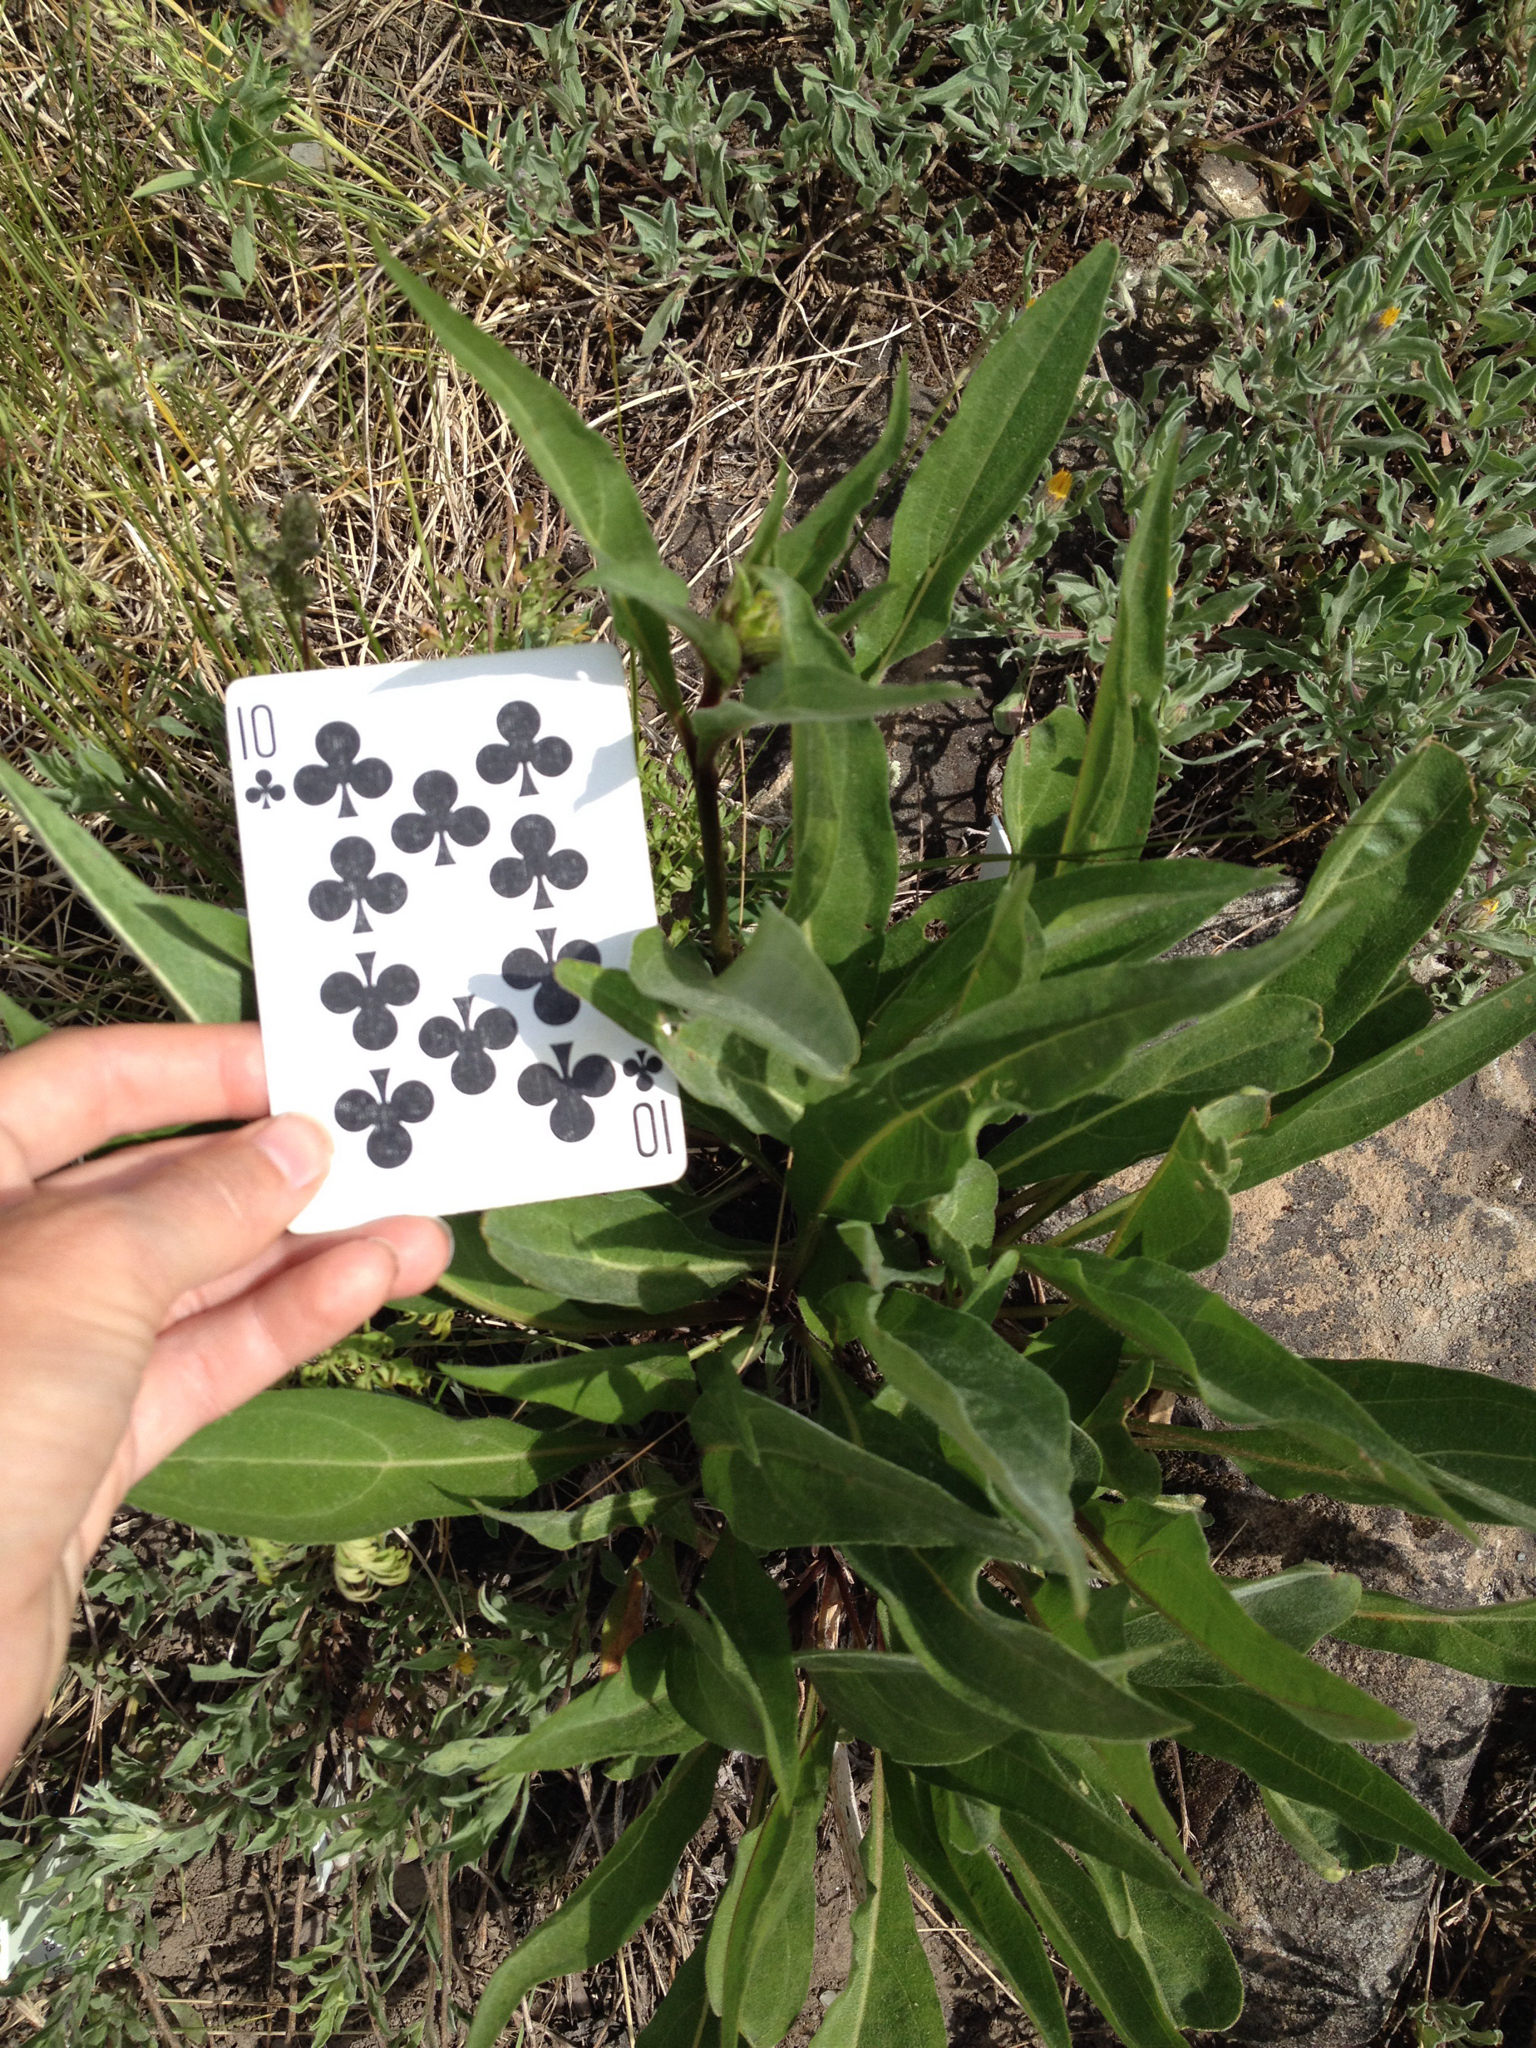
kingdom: Plantae
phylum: Tracheophyta
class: Magnoliopsida
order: Asterales
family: Asteraceae
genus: Helianthella
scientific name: Helianthella quinquenervis
